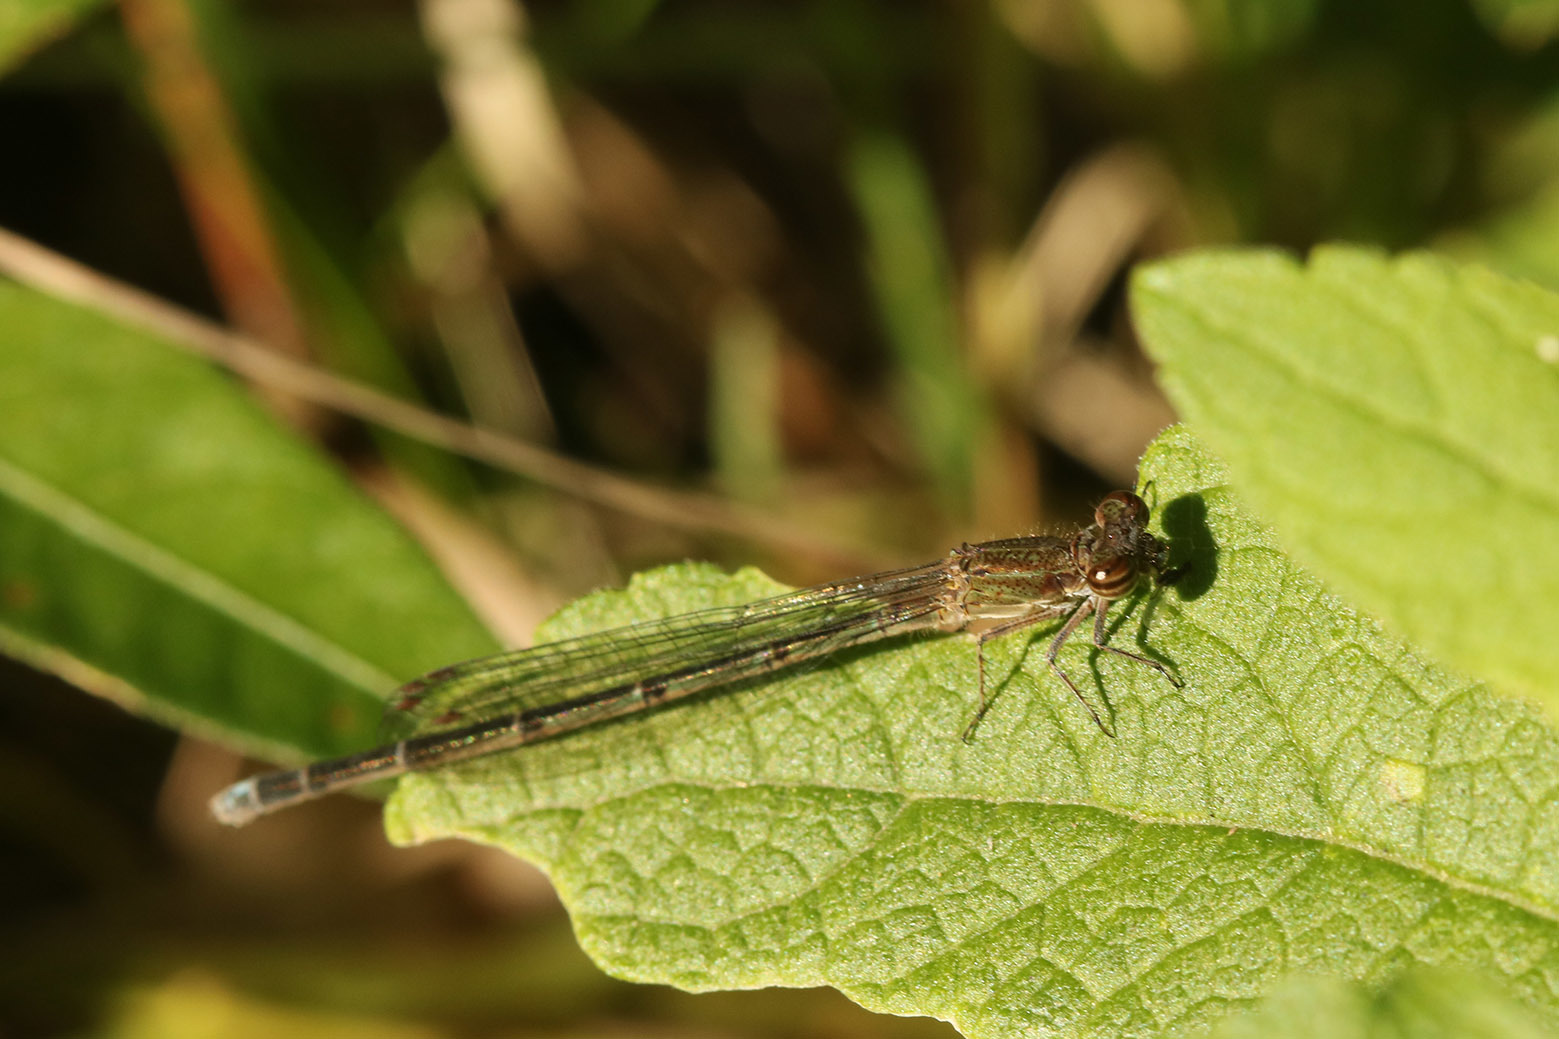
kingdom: Animalia
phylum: Arthropoda
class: Insecta
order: Odonata
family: Coenagrionidae
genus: Oxyagrion
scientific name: Oxyagrion terminale
